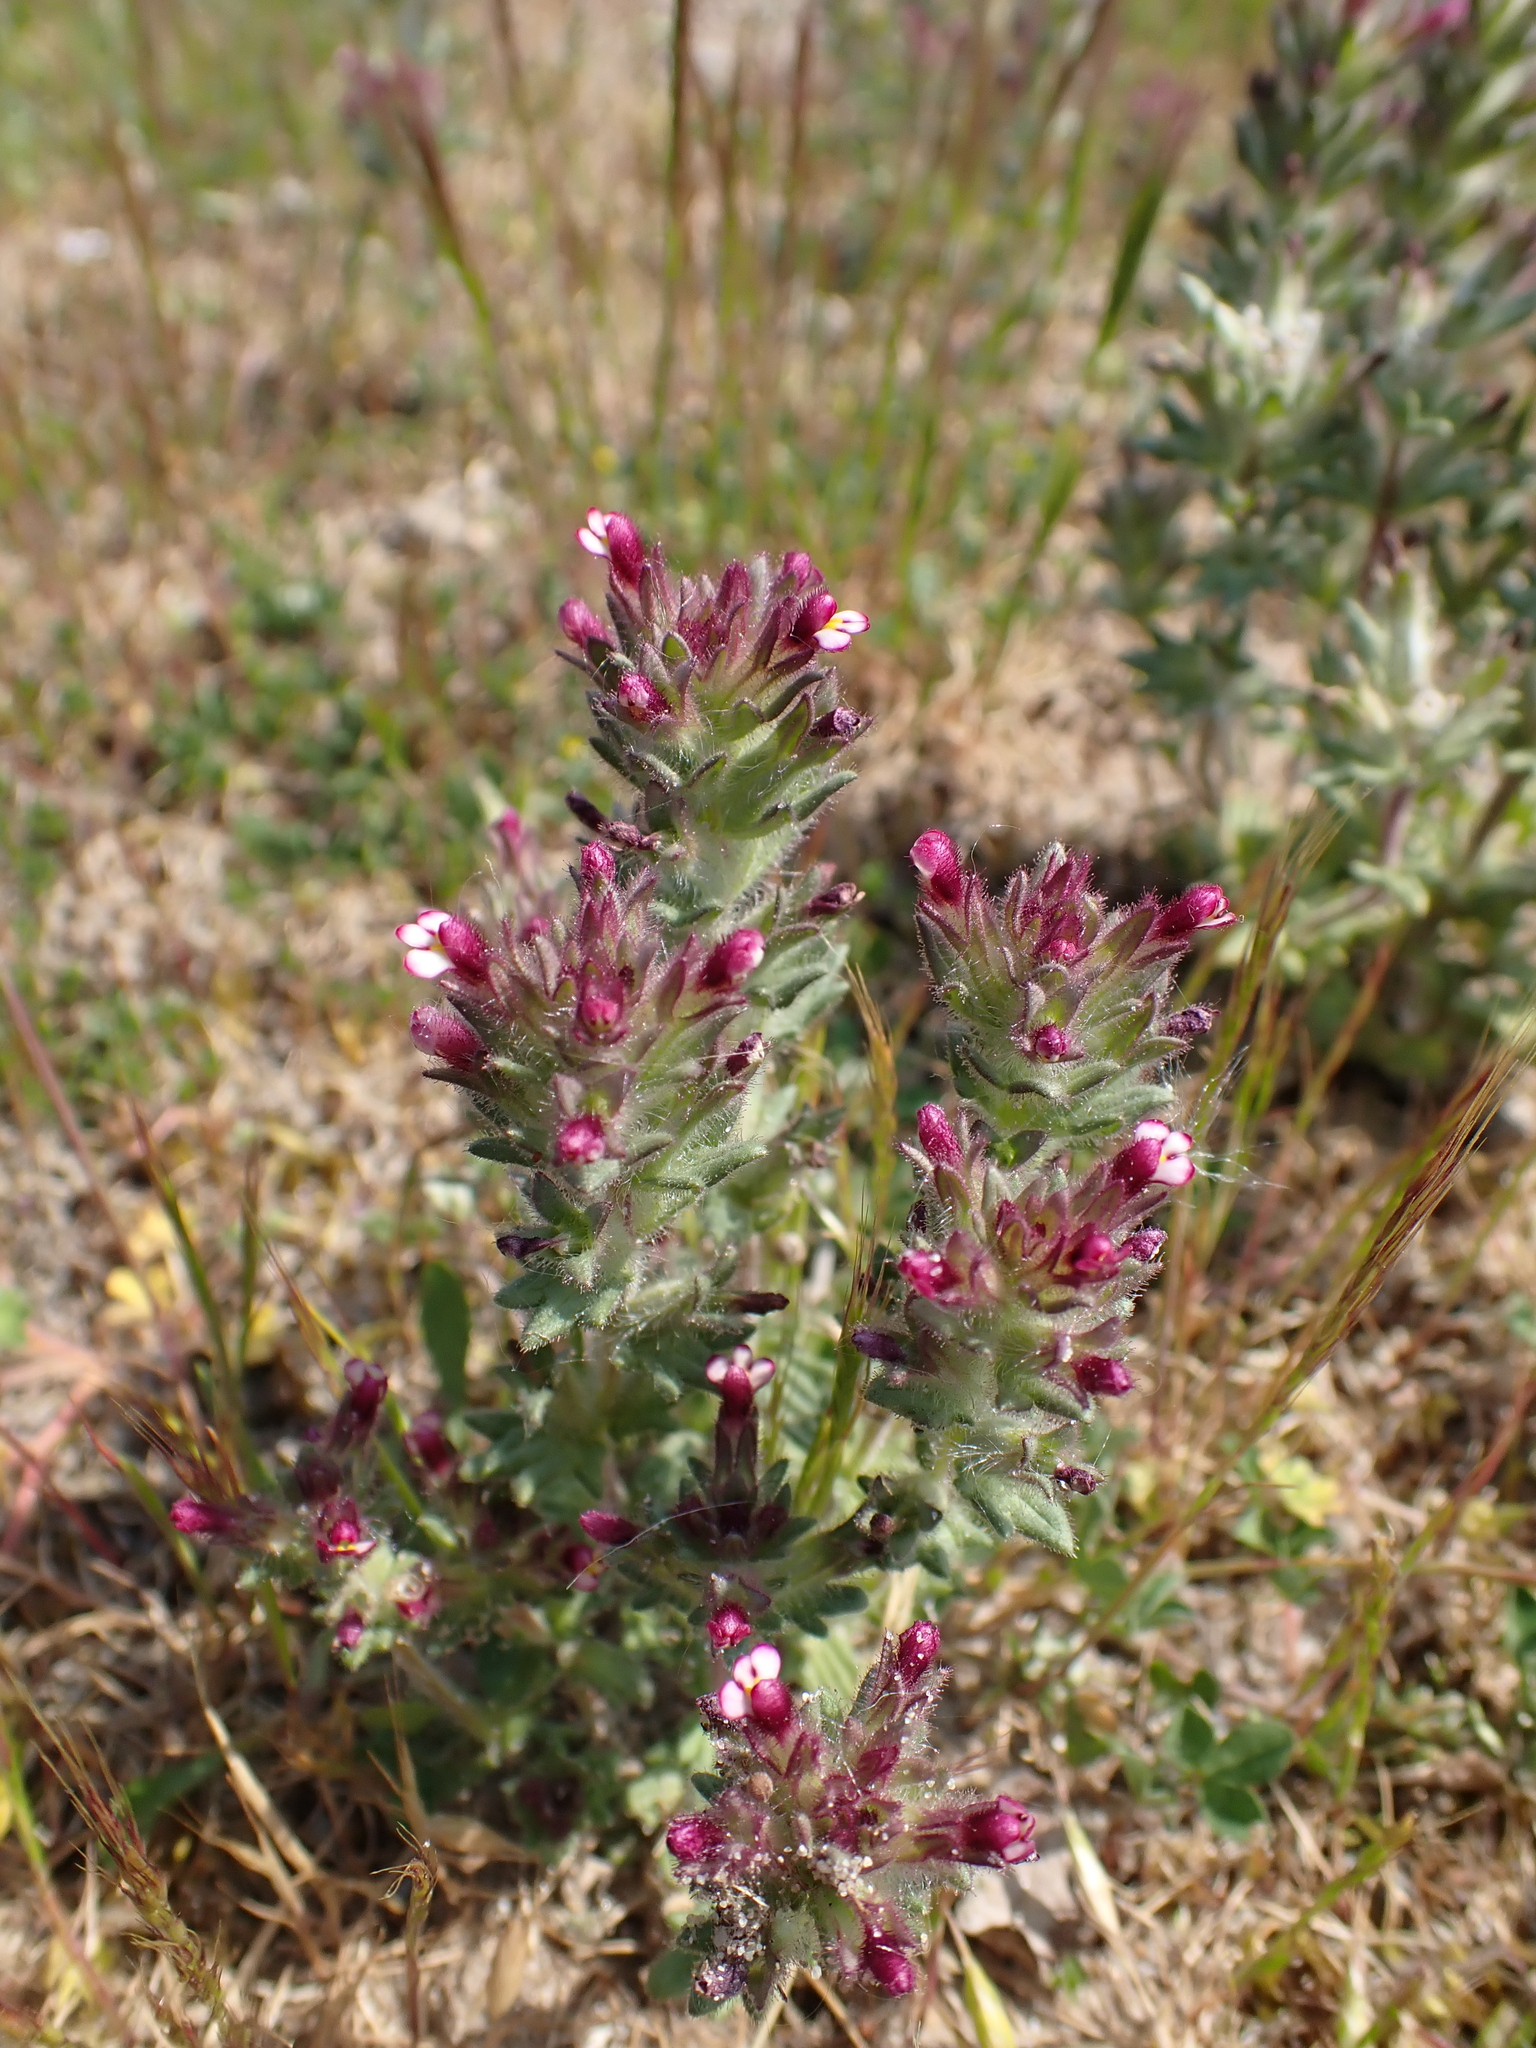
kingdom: Plantae
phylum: Tracheophyta
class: Magnoliopsida
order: Lamiales
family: Orobanchaceae
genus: Parentucellia
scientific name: Parentucellia latifolia
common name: Broadleaf glandweed
